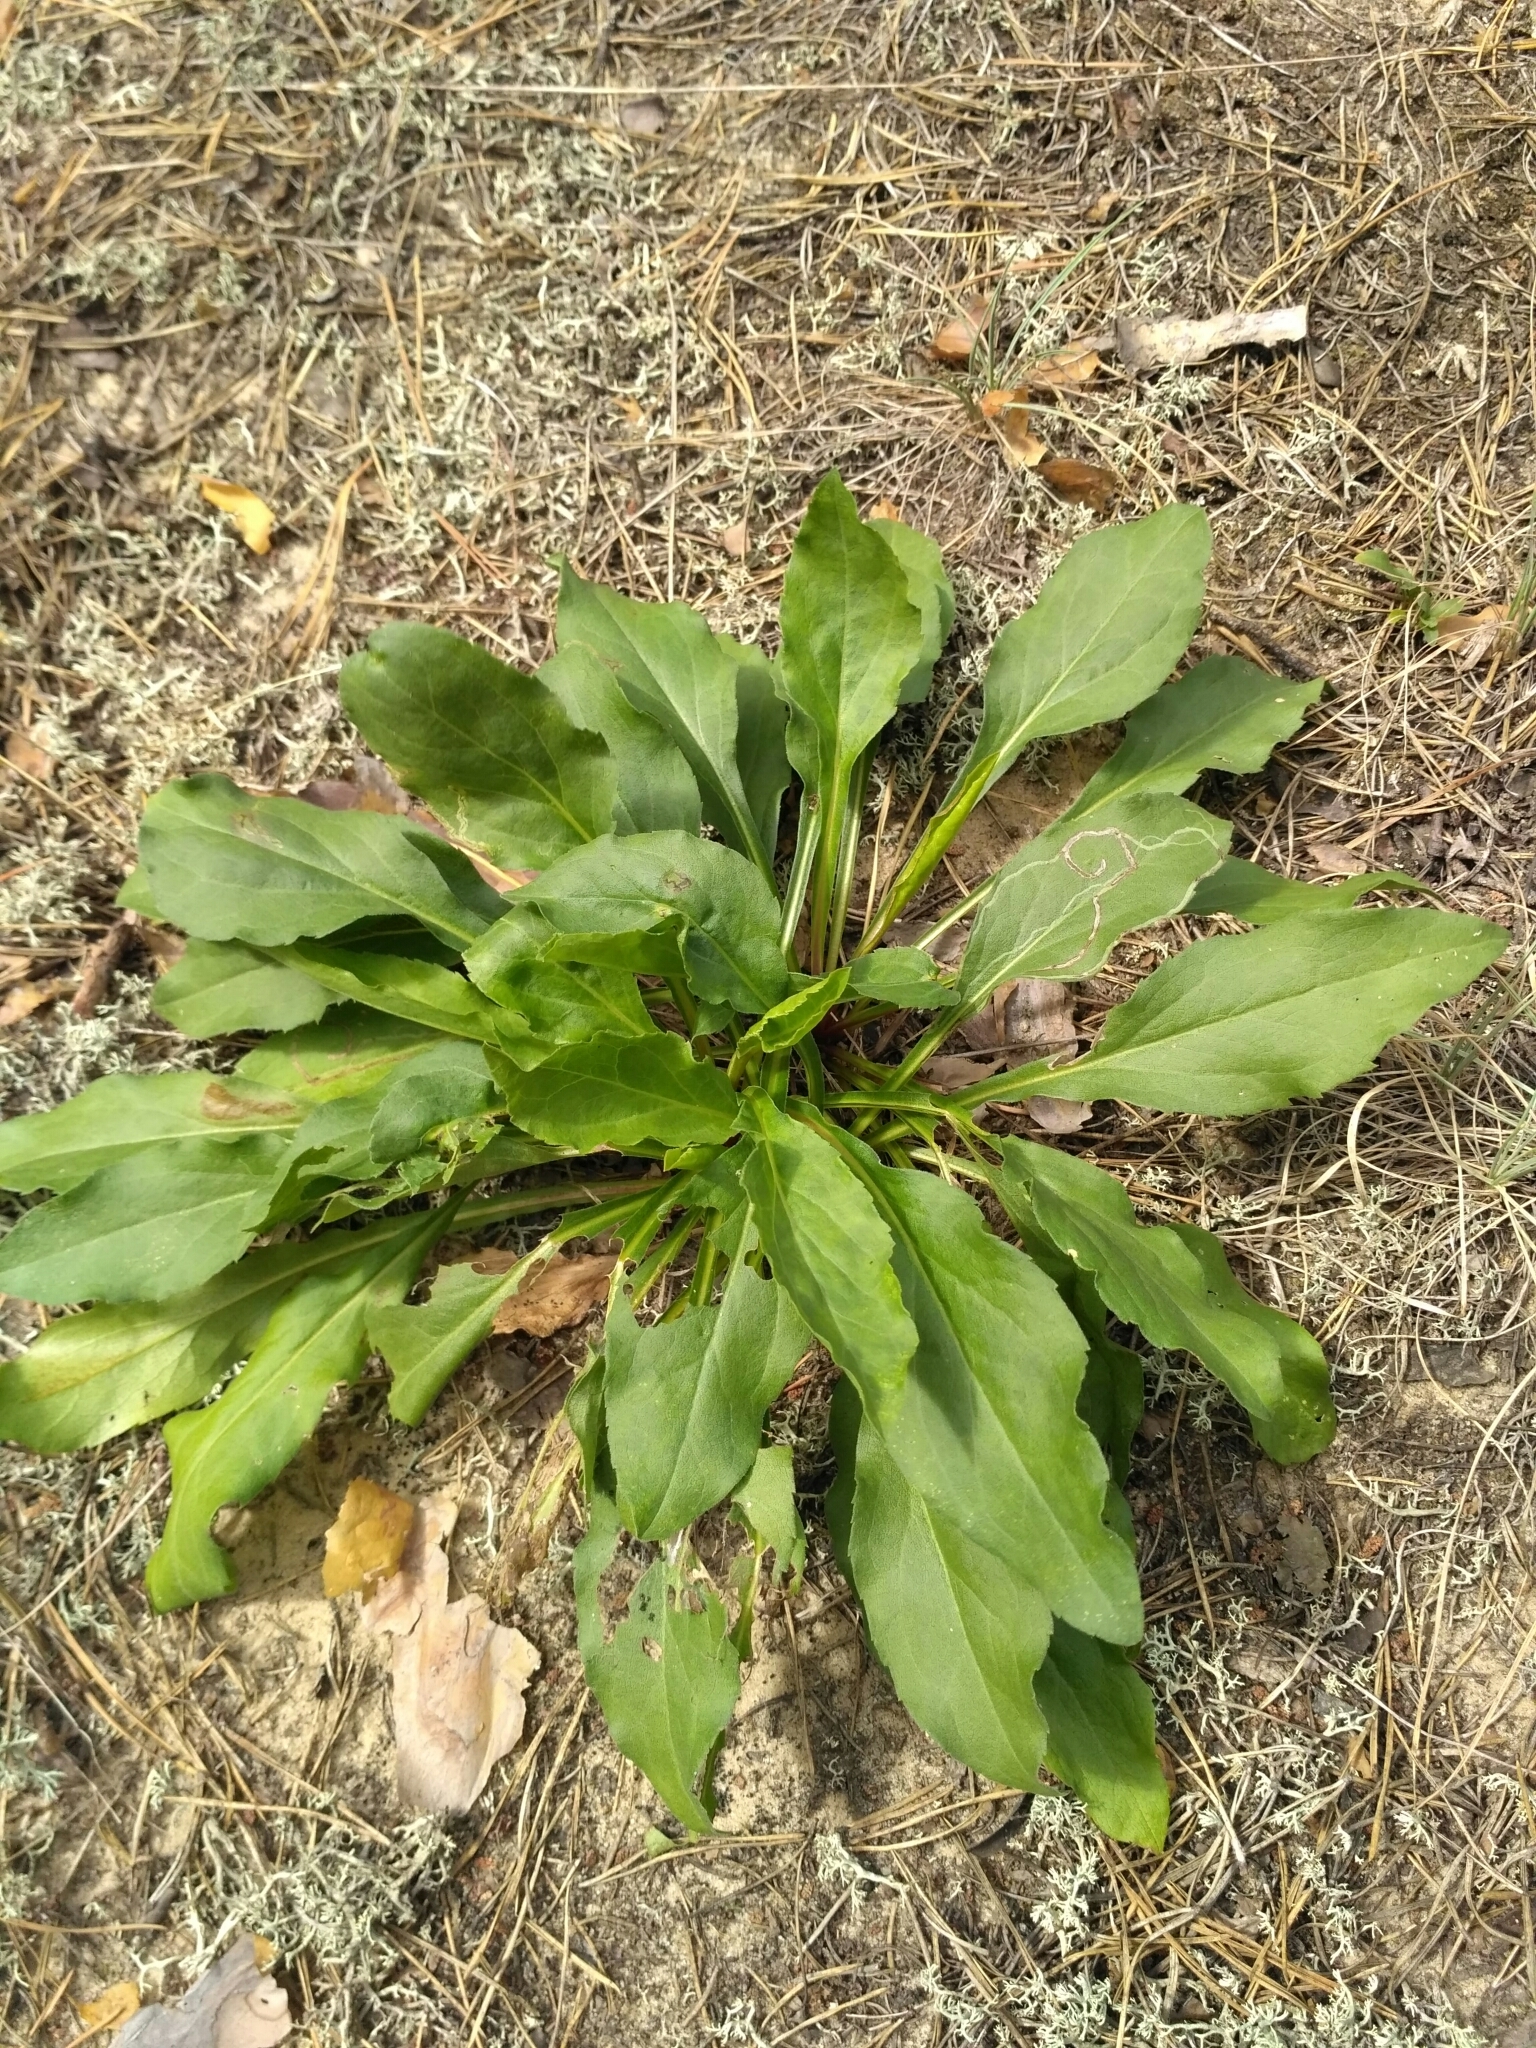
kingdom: Plantae
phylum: Tracheophyta
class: Magnoliopsida
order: Asterales
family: Asteraceae
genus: Solidago
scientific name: Solidago virgaurea
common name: Goldenrod
